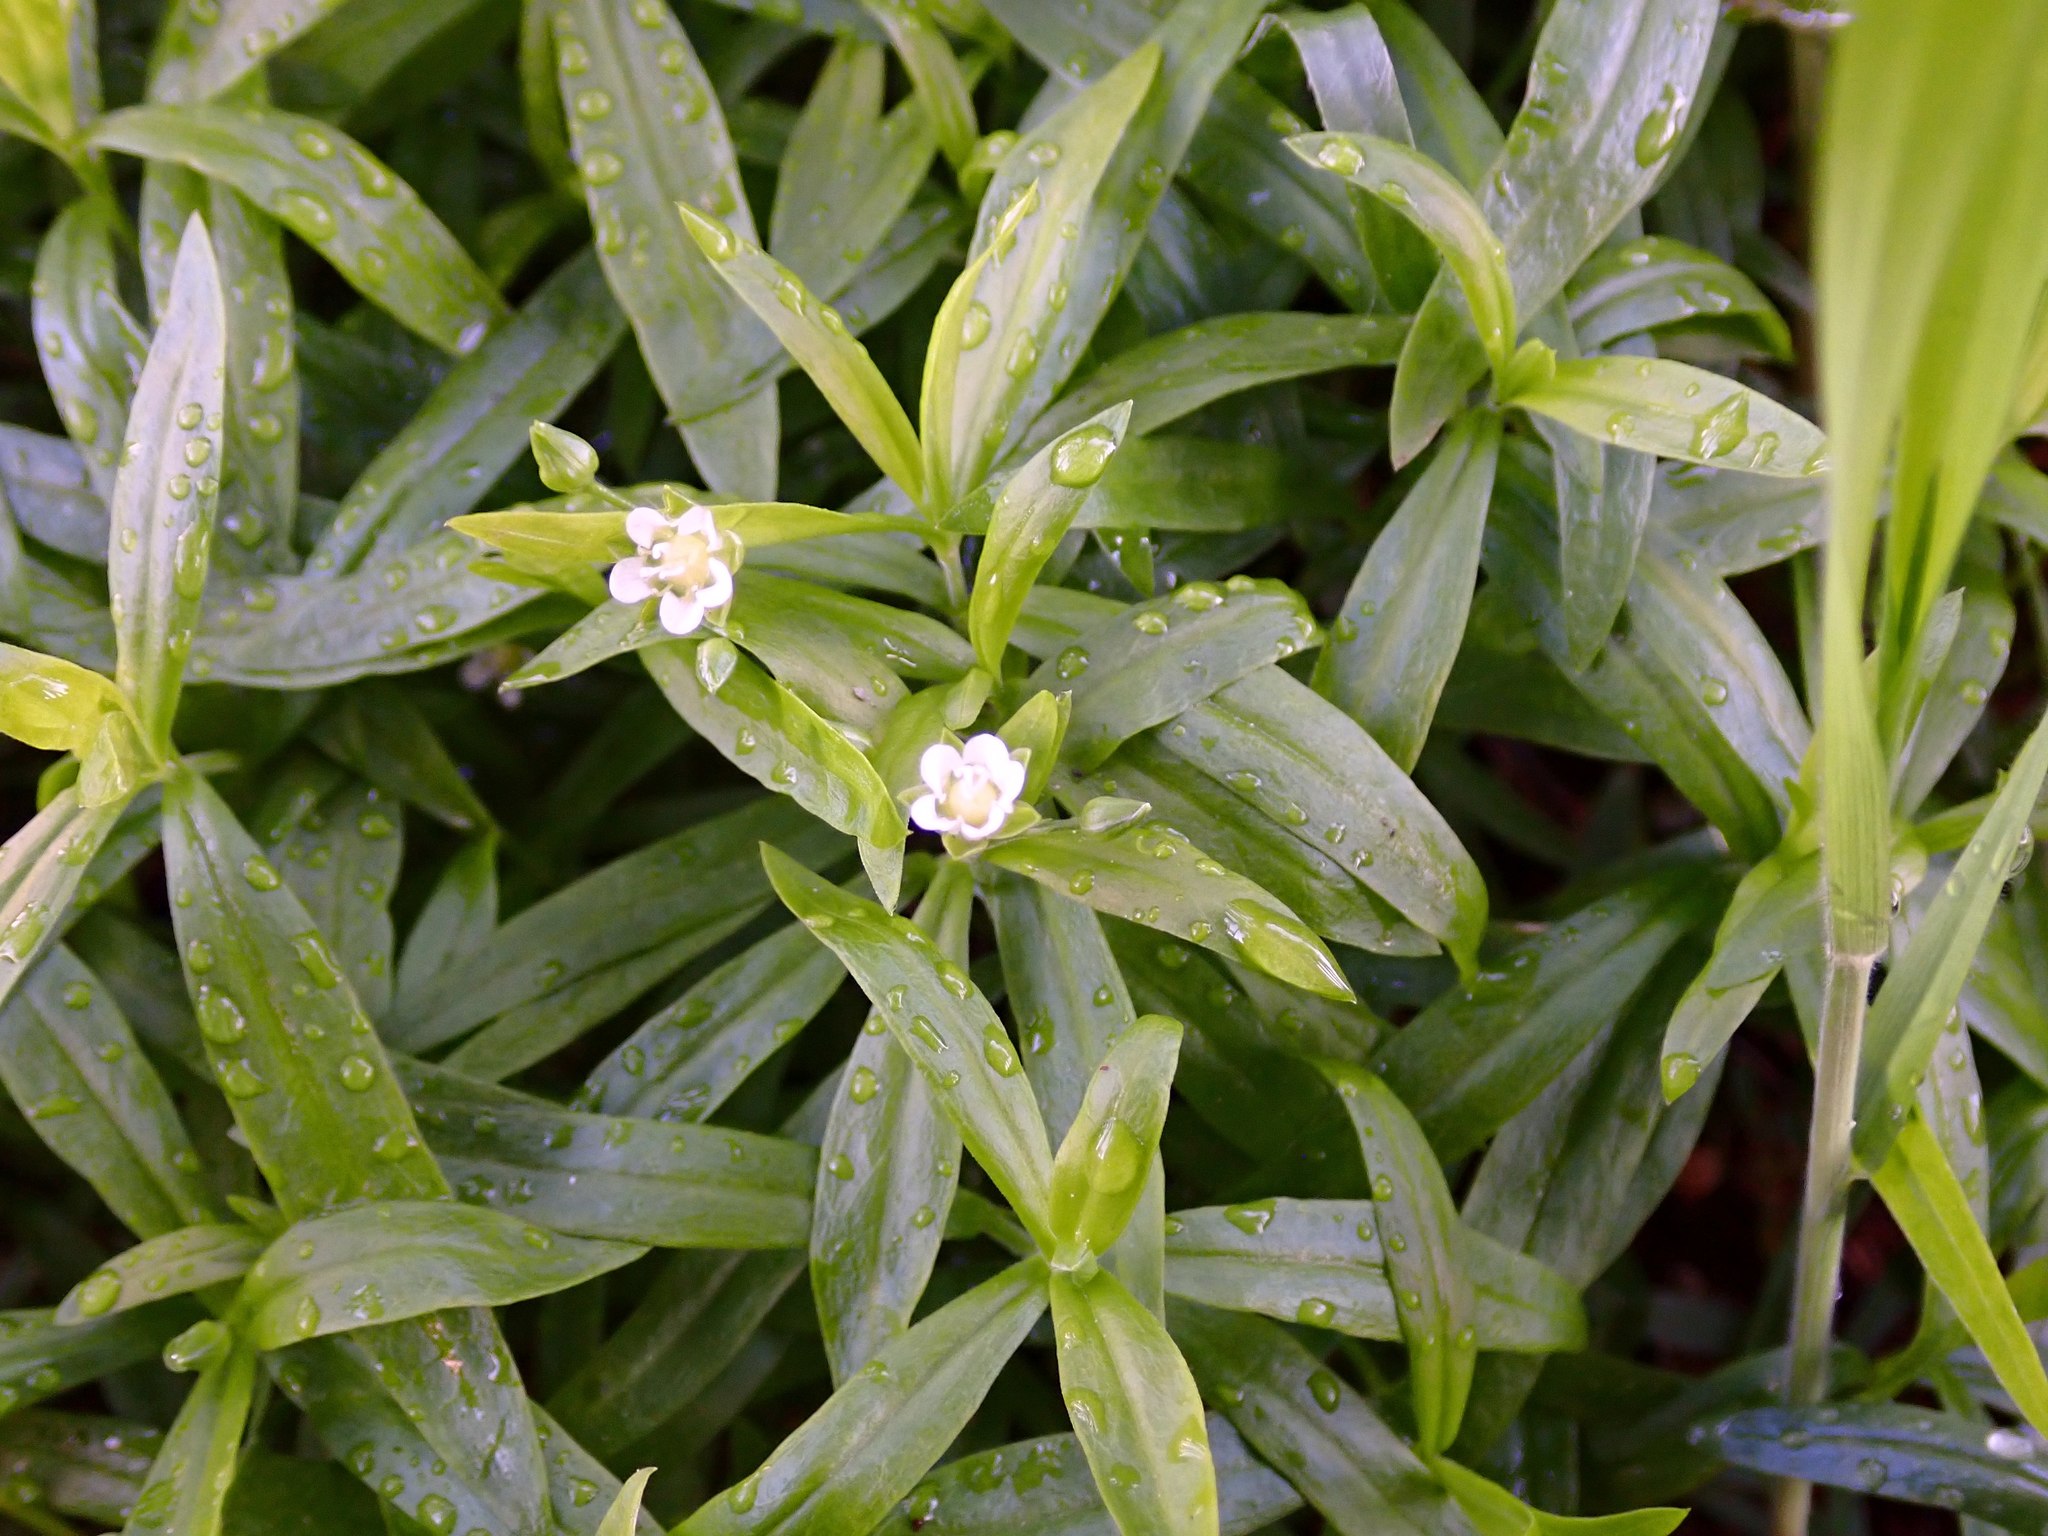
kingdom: Plantae
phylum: Tracheophyta
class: Magnoliopsida
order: Caryophyllales
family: Caryophyllaceae
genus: Moehringia
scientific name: Moehringia macrophylla
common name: Big-leaf sandwort
